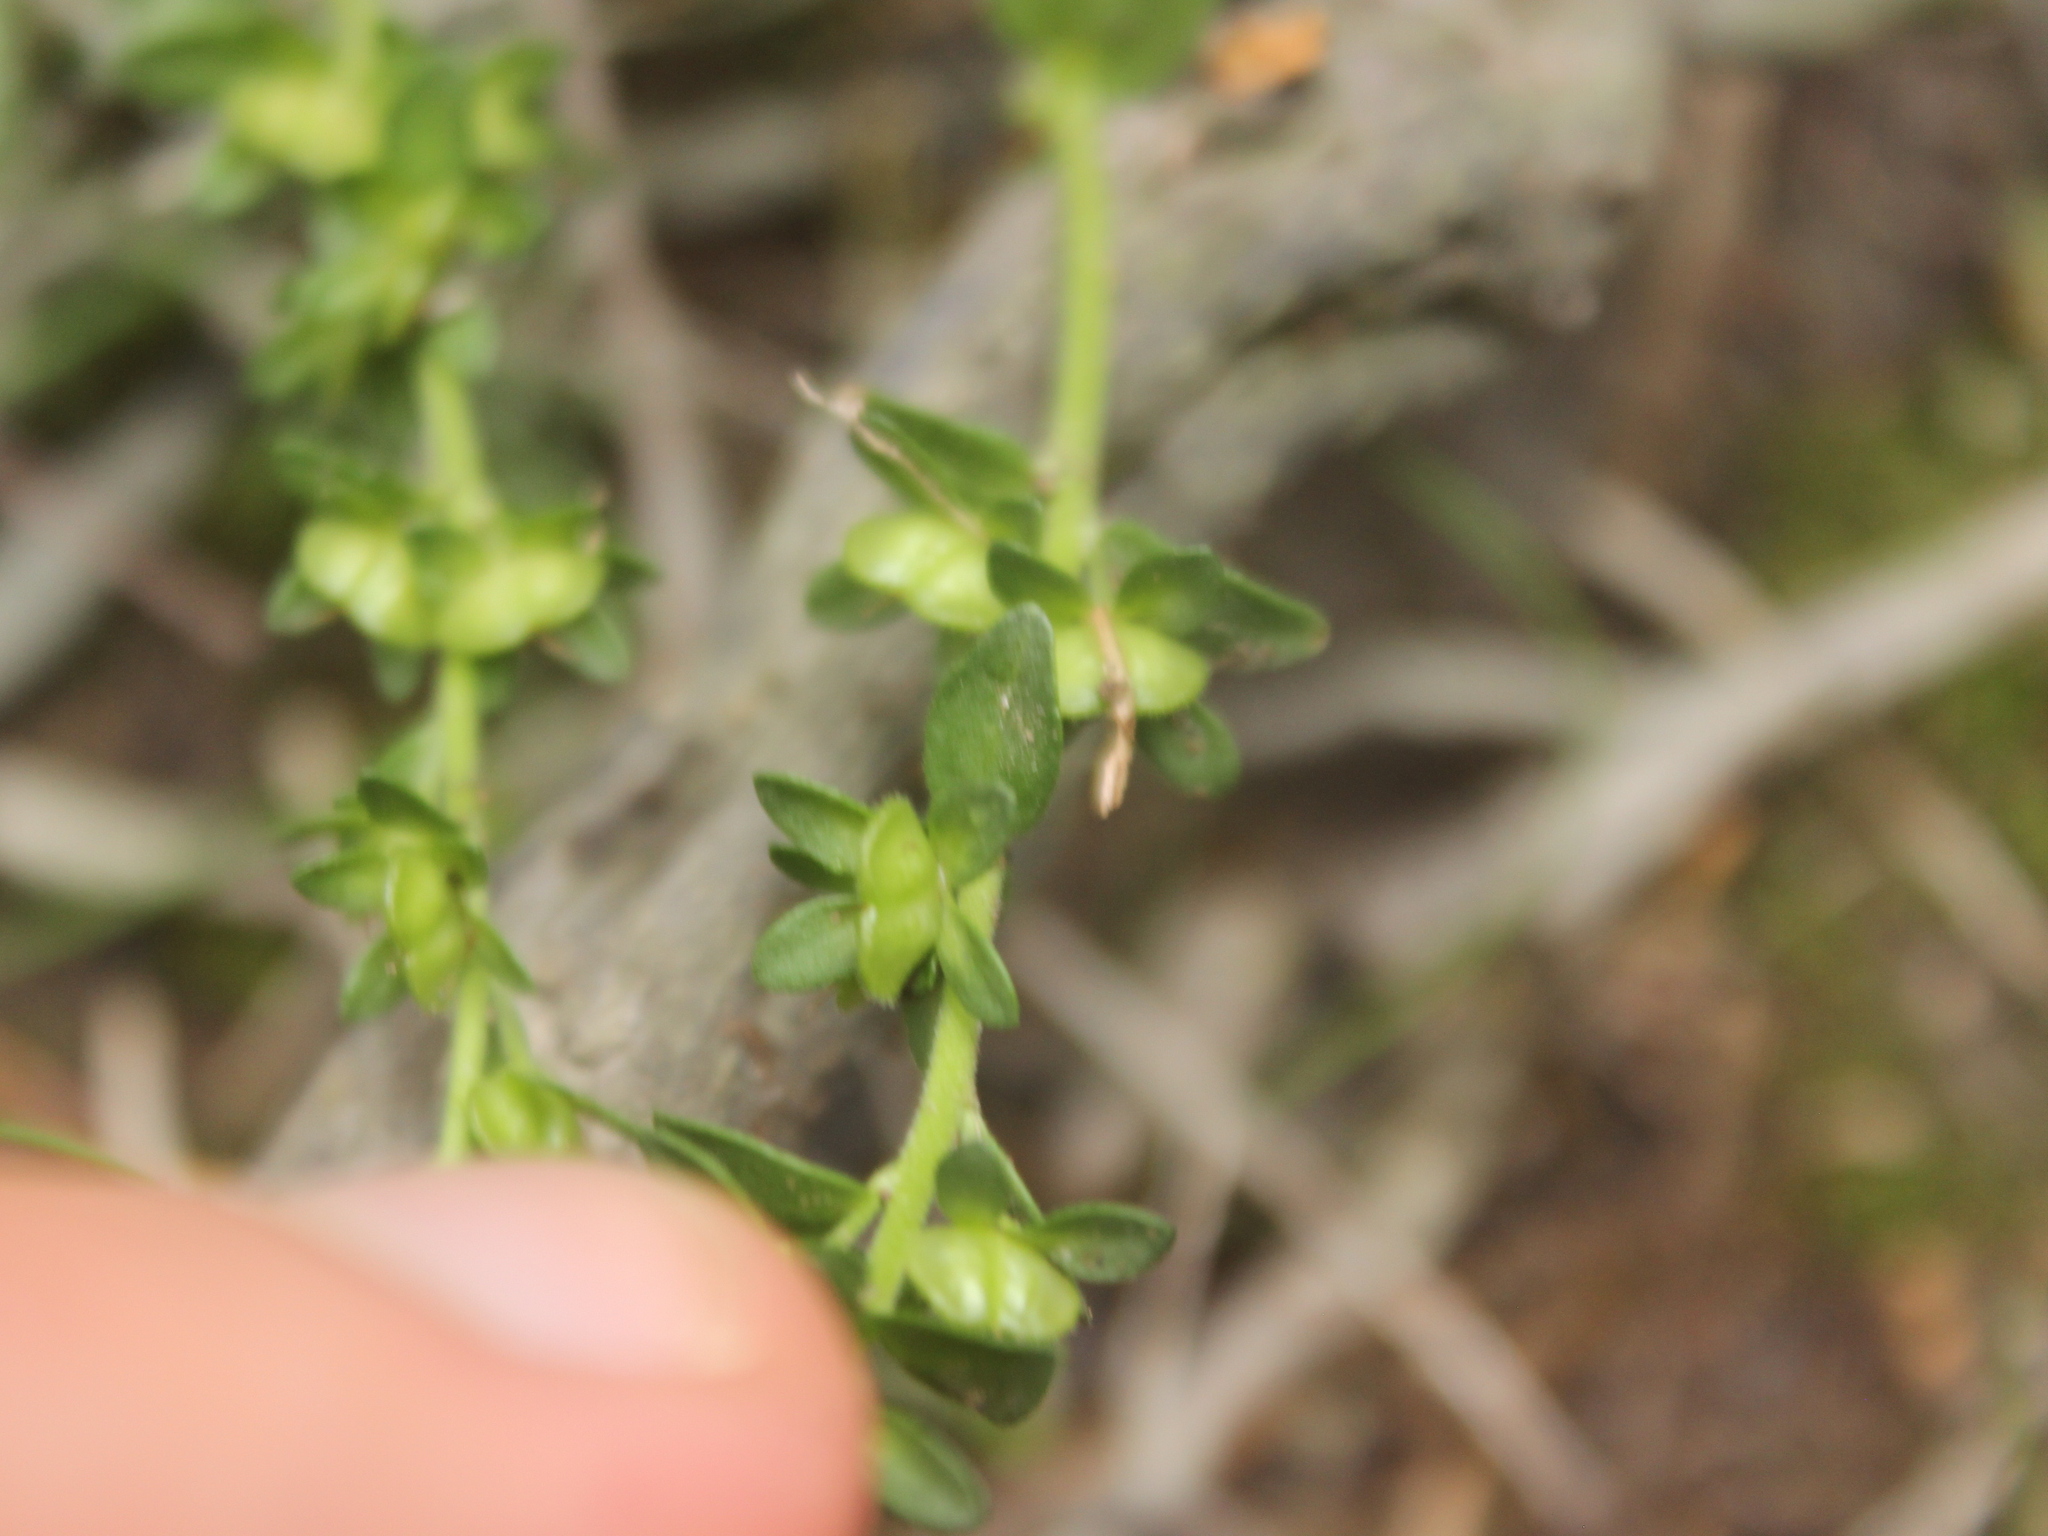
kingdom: Plantae
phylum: Tracheophyta
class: Magnoliopsida
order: Lamiales
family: Plantaginaceae
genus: Veronica
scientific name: Veronica serpyllifolia
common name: Thyme-leaved speedwell
